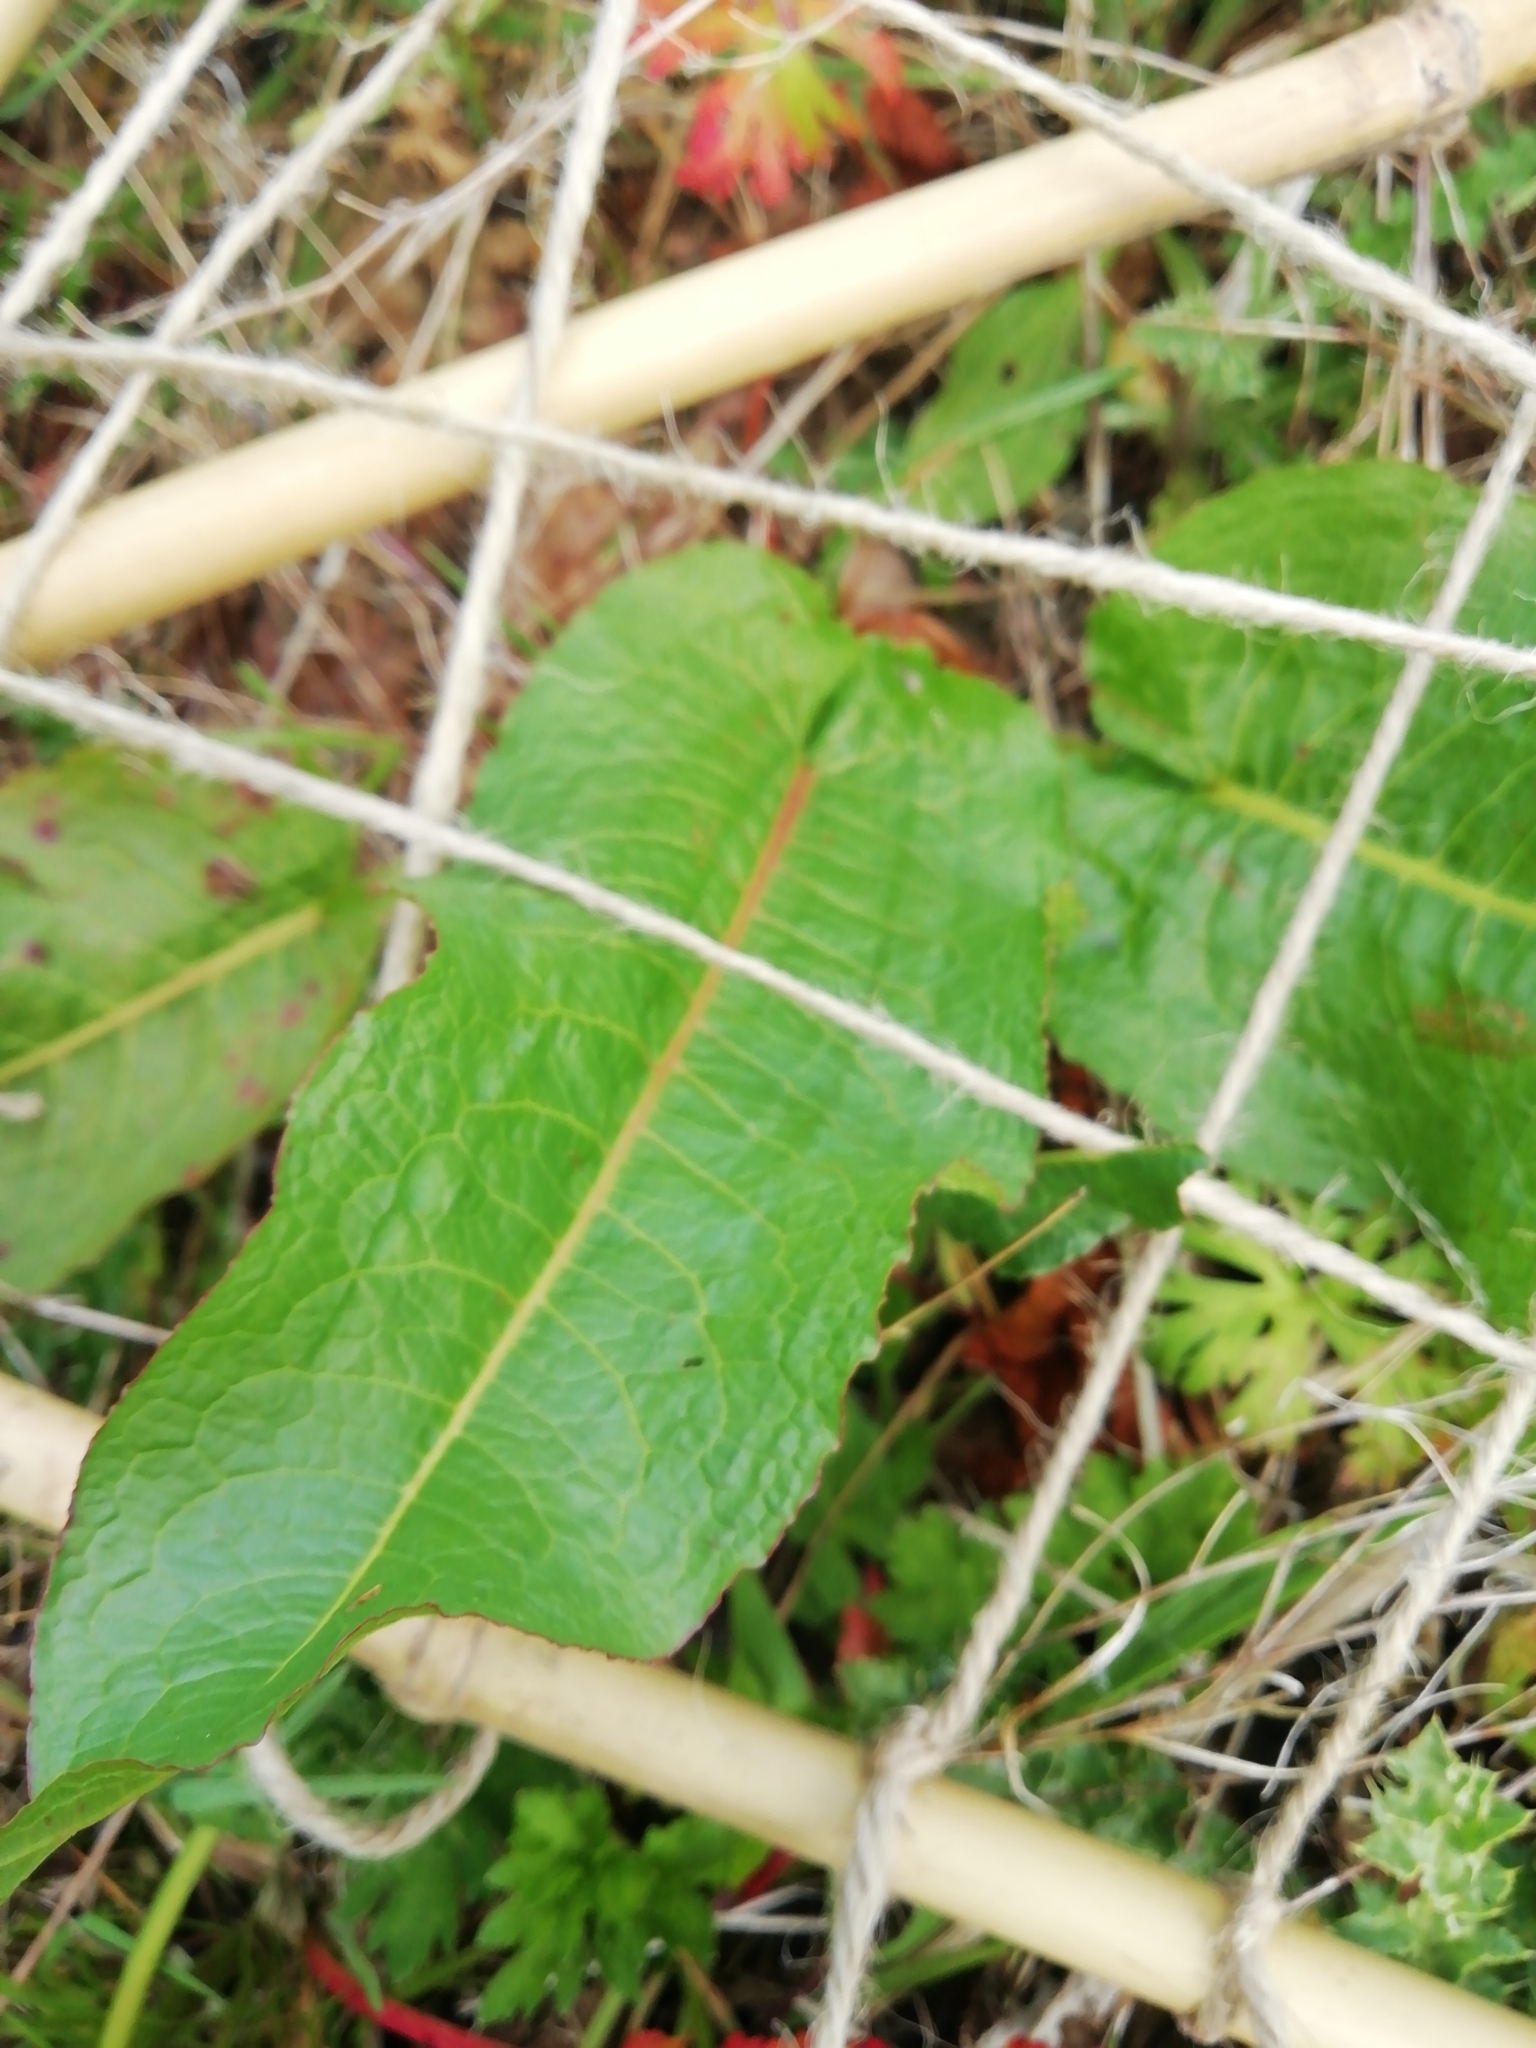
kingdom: Plantae
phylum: Tracheophyta
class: Magnoliopsida
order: Caryophyllales
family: Polygonaceae
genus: Rumex
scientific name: Rumex obtusifolius
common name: Bitter dock
